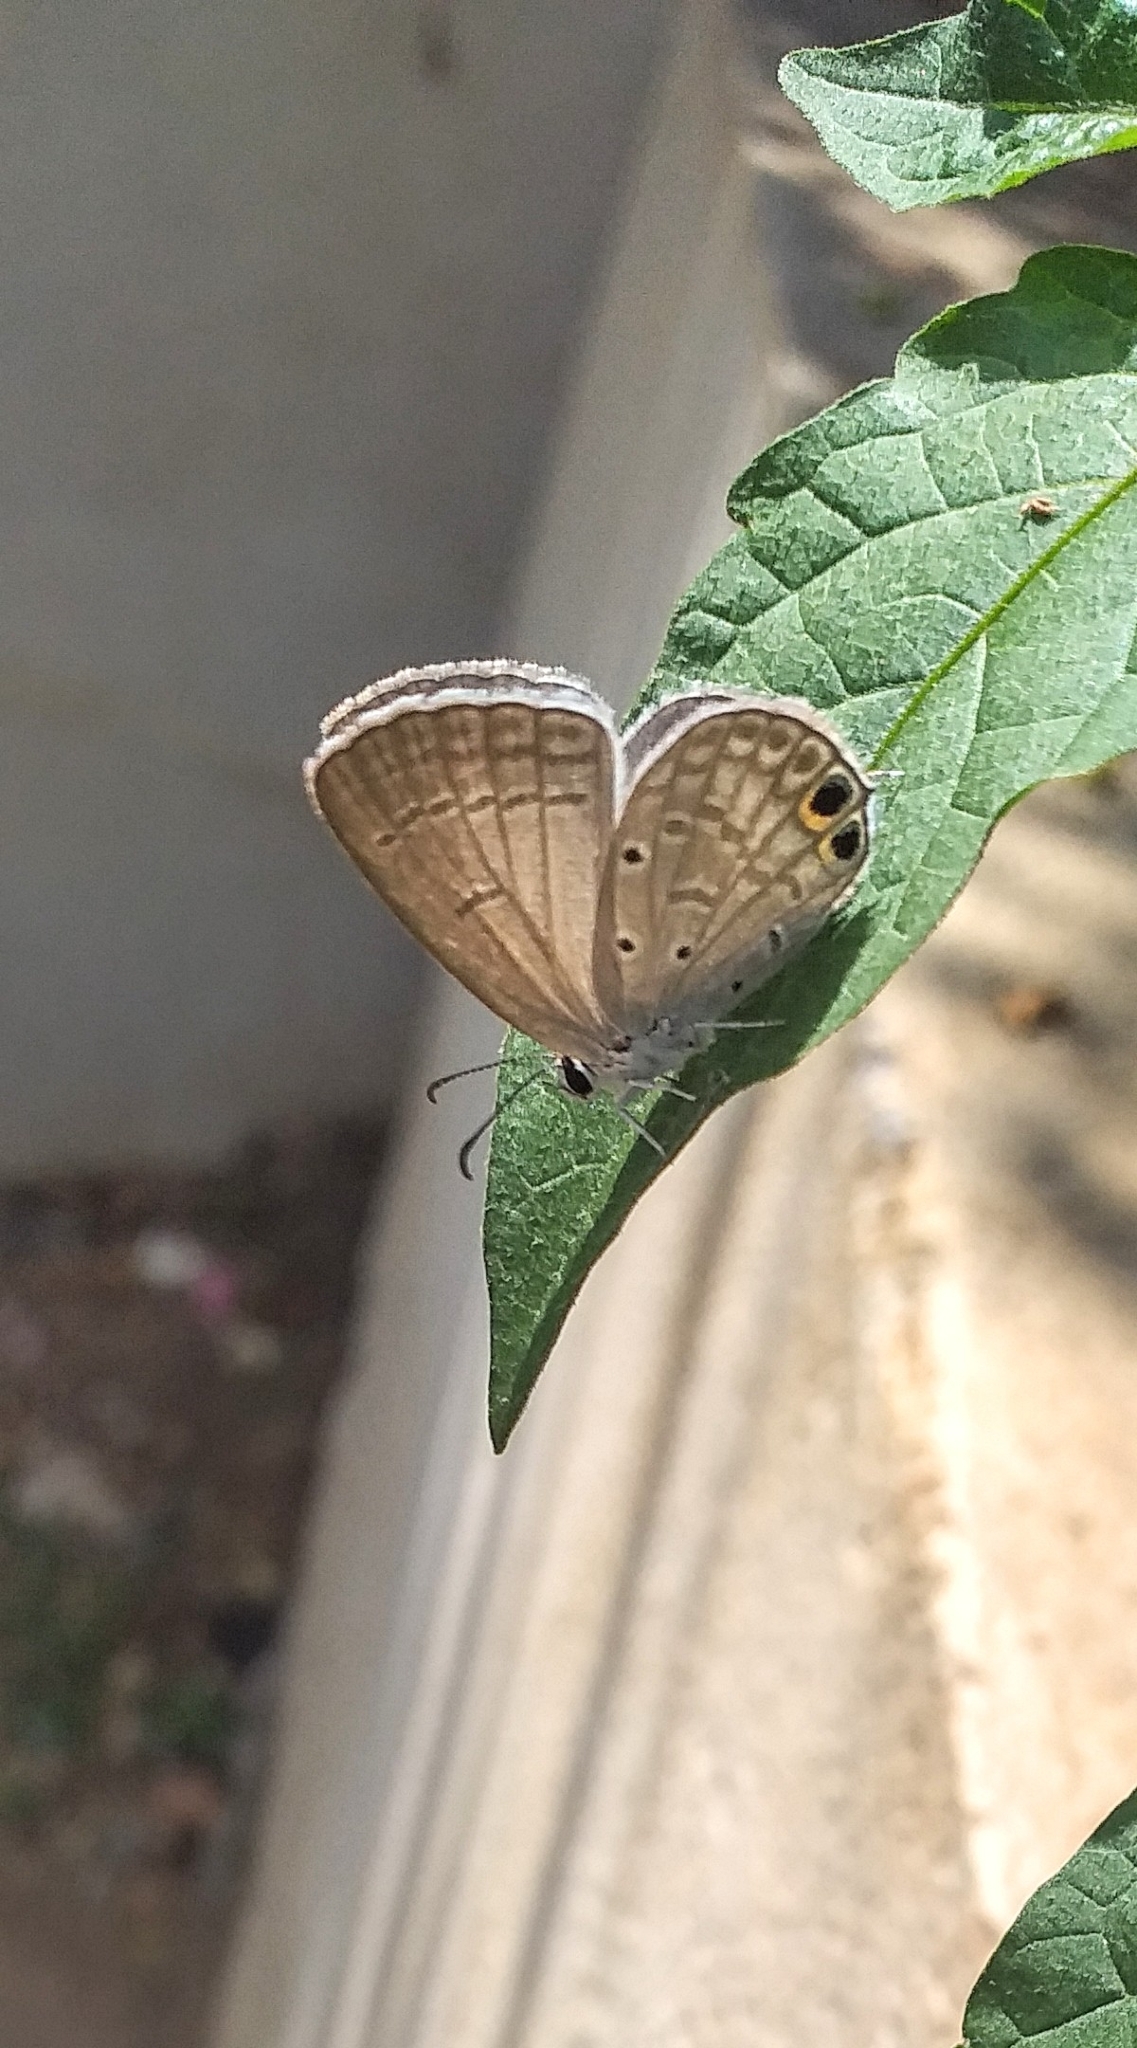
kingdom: Animalia
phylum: Arthropoda
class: Insecta
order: Lepidoptera
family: Lycaenidae
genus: Euchrysops
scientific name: Euchrysops cnejus
